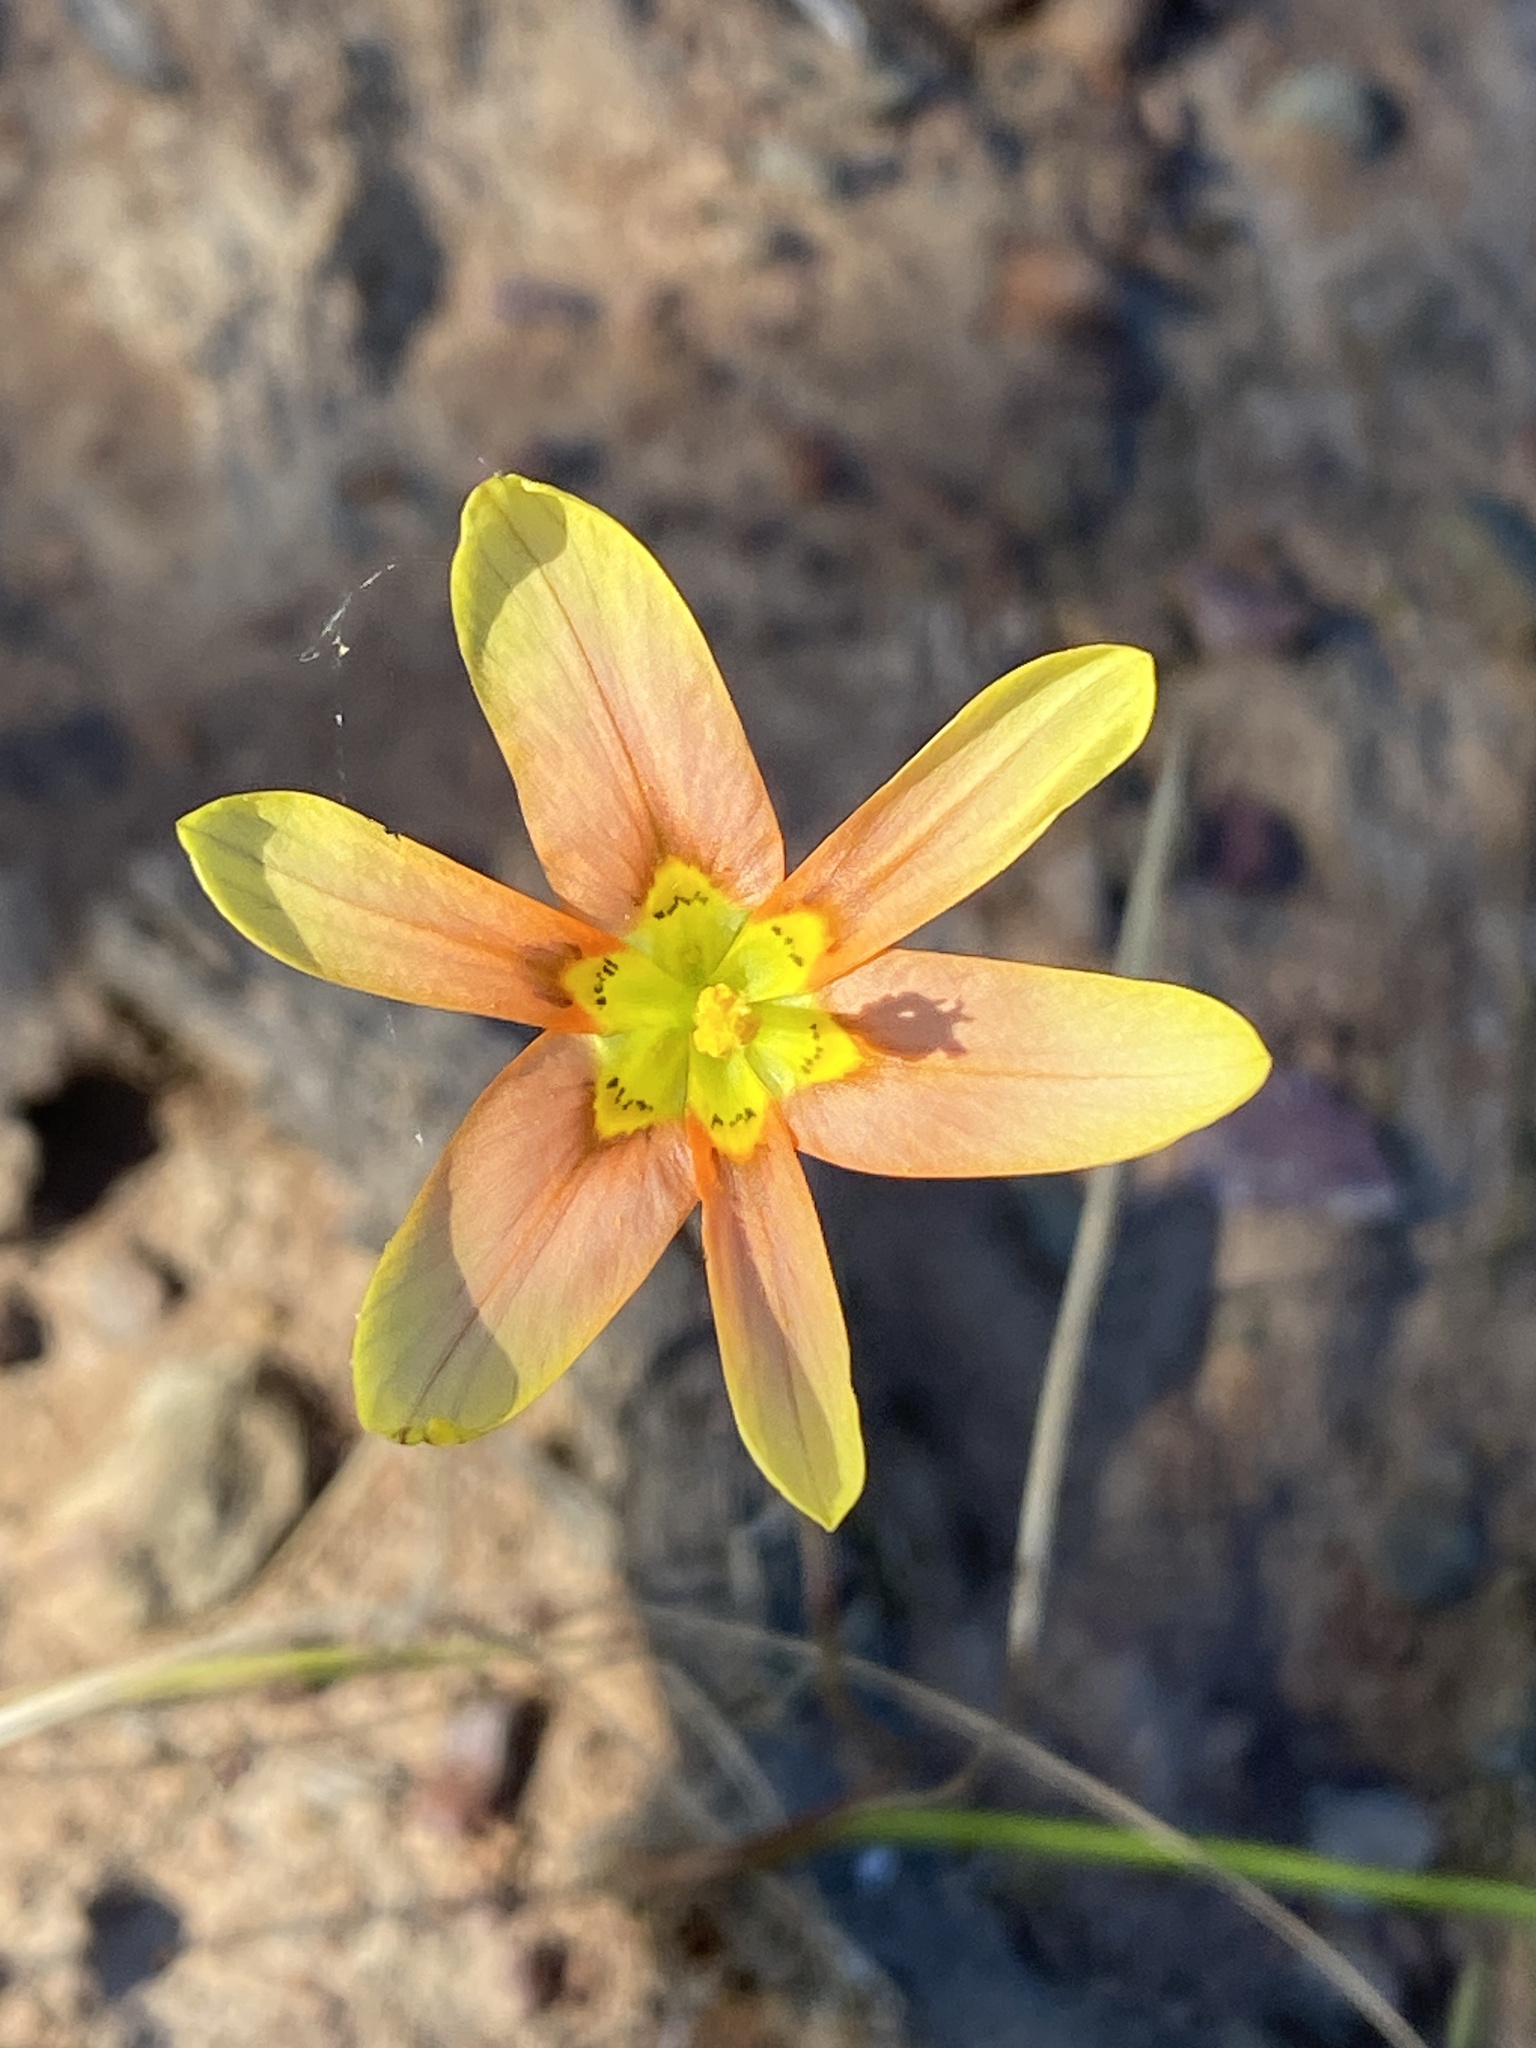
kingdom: Plantae
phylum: Tracheophyta
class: Liliopsida
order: Asparagales
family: Iridaceae
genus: Moraea
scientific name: Moraea karroica
